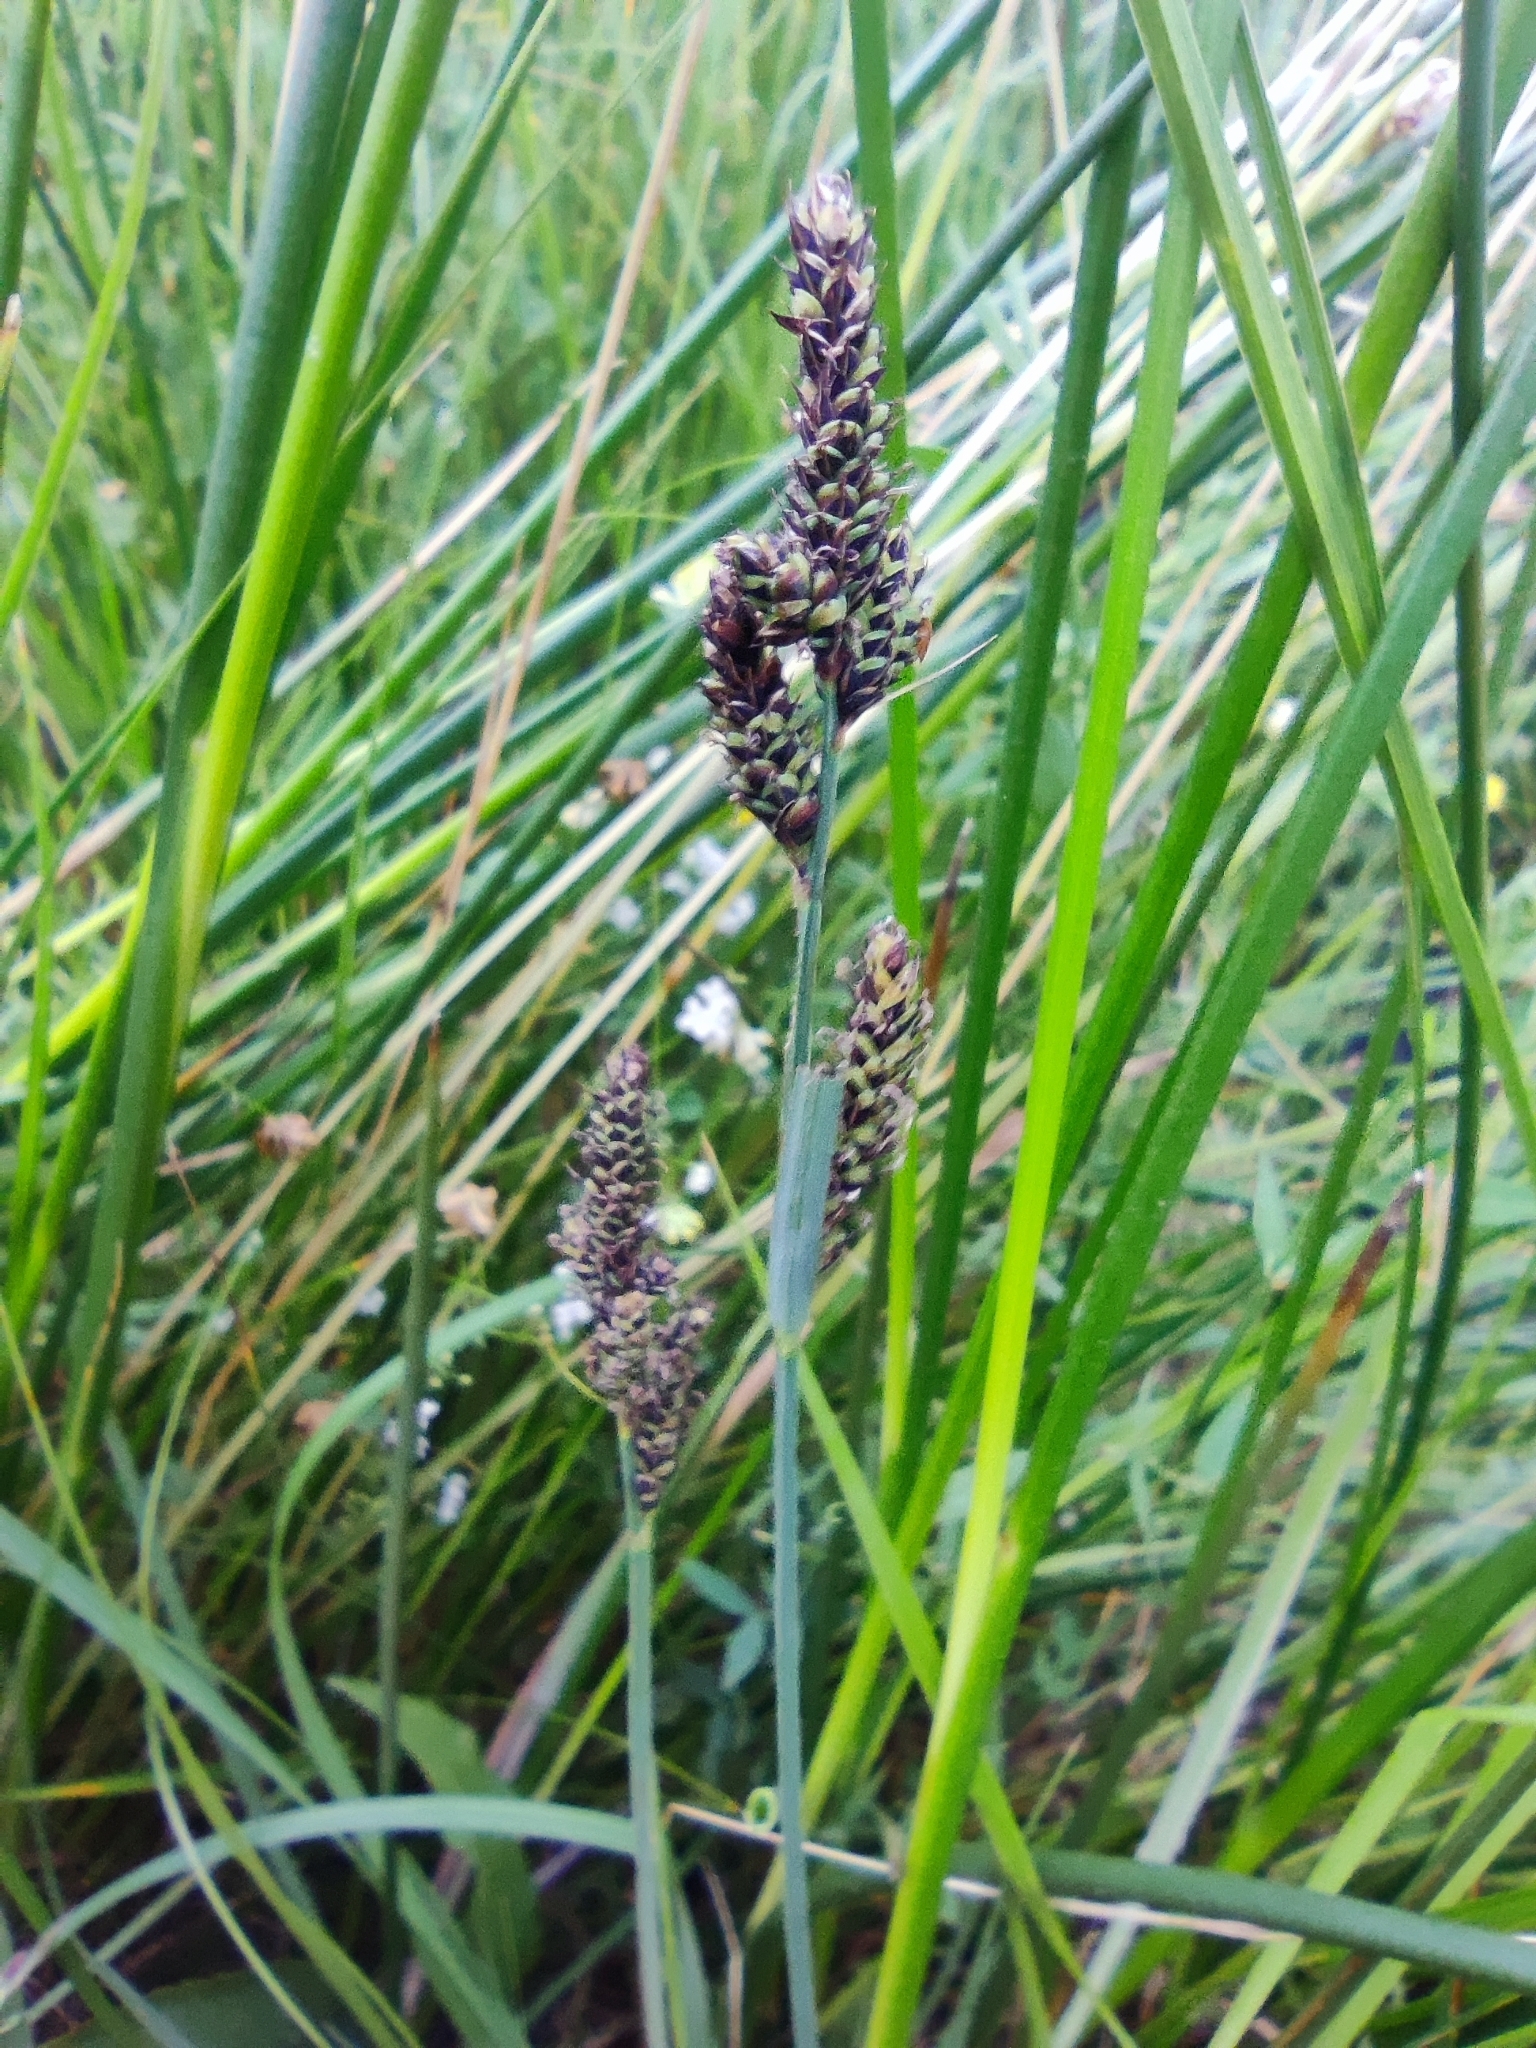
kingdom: Plantae
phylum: Tracheophyta
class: Liliopsida
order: Poales
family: Cyperaceae
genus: Carex
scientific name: Carex hartmaniorum
